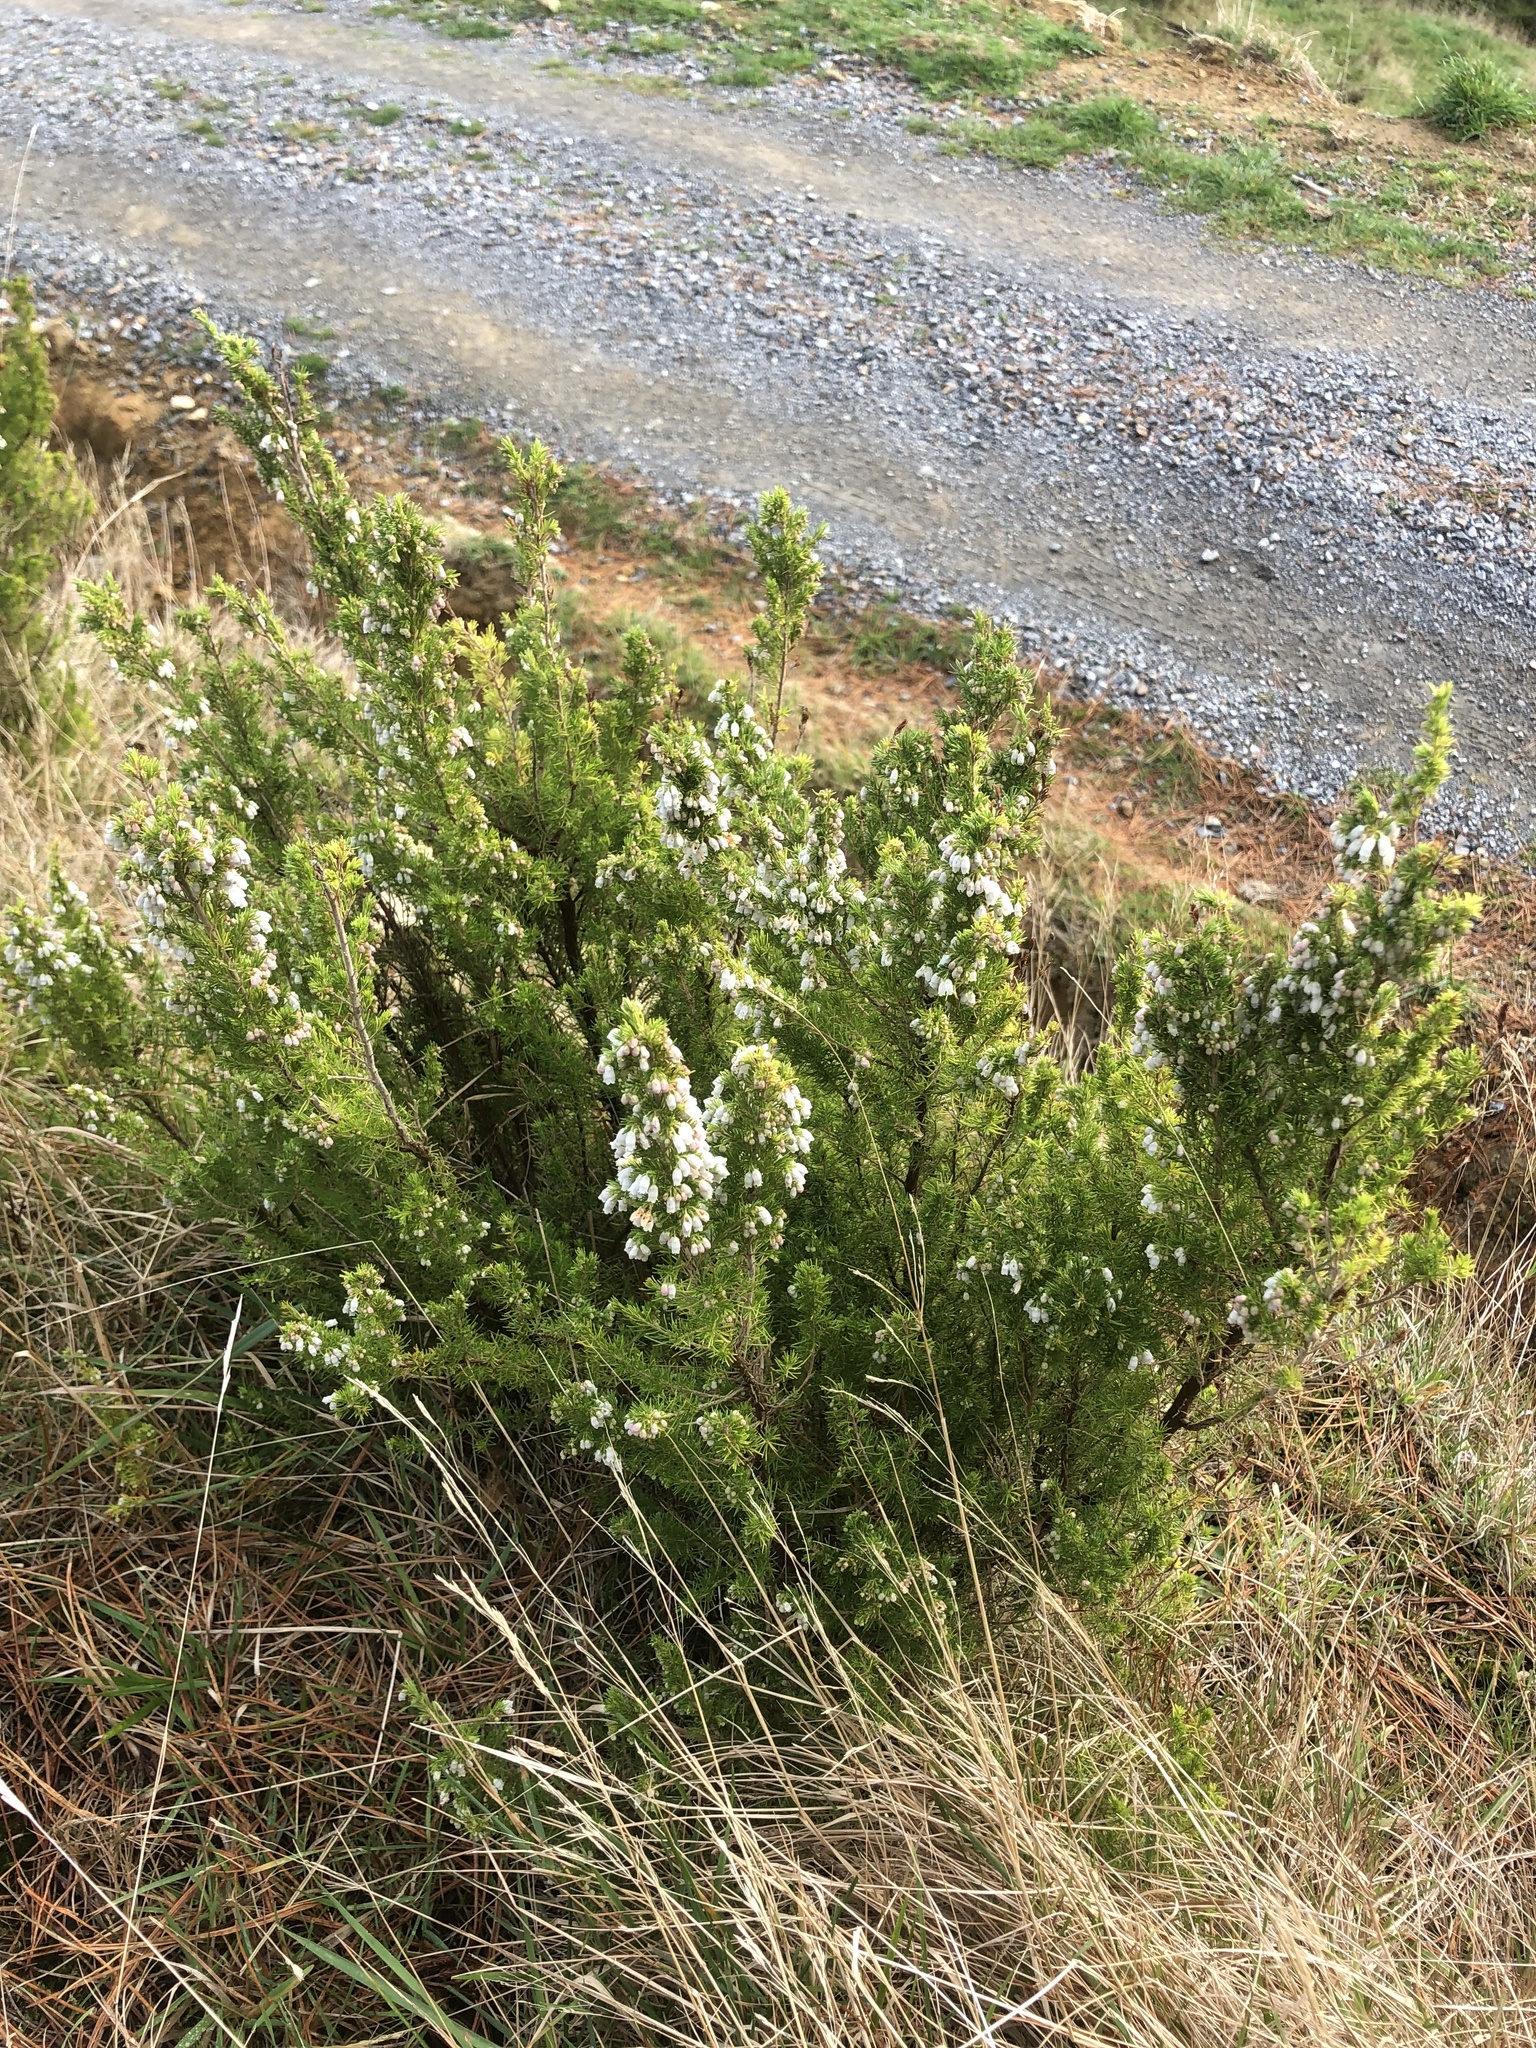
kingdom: Plantae
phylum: Tracheophyta
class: Magnoliopsida
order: Ericales
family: Ericaceae
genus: Erica
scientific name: Erica lusitanica
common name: Spanish heath
